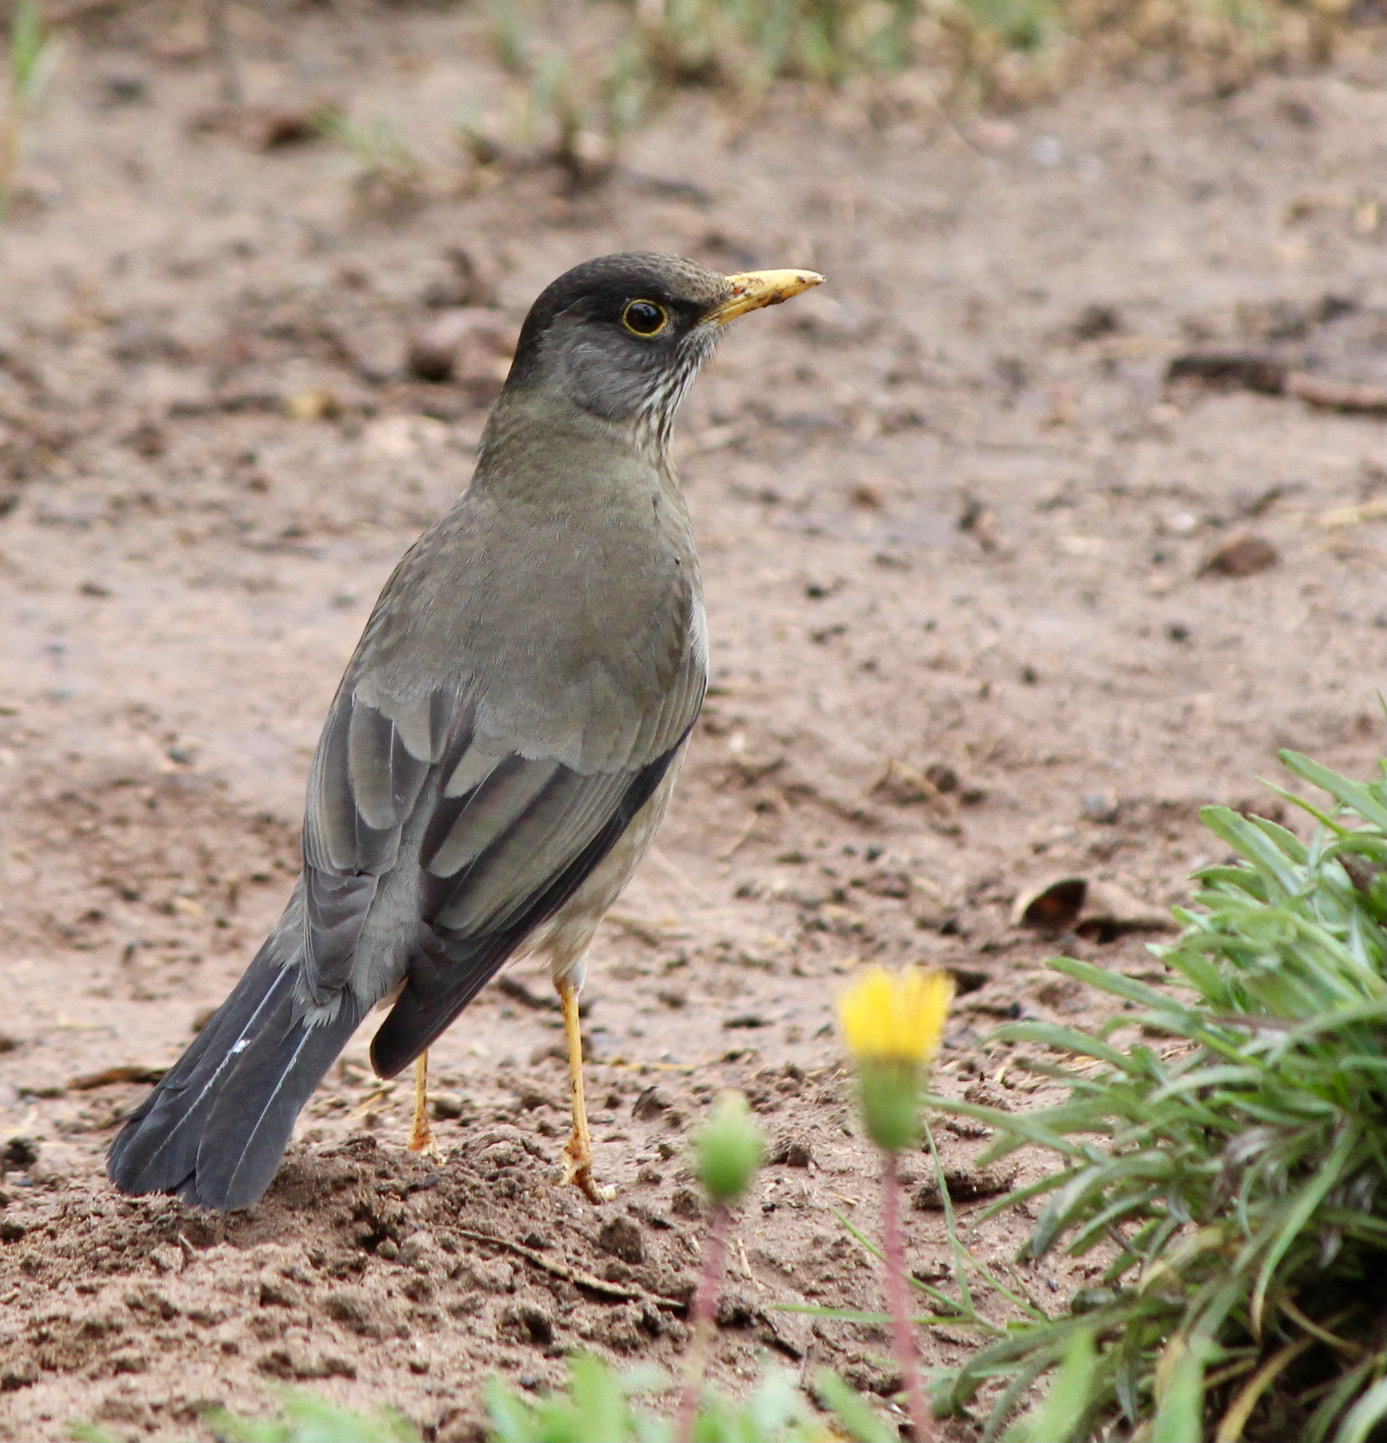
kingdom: Animalia
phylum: Chordata
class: Aves
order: Passeriformes
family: Turdidae
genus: Turdus
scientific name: Turdus falcklandii
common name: Austral thrush
